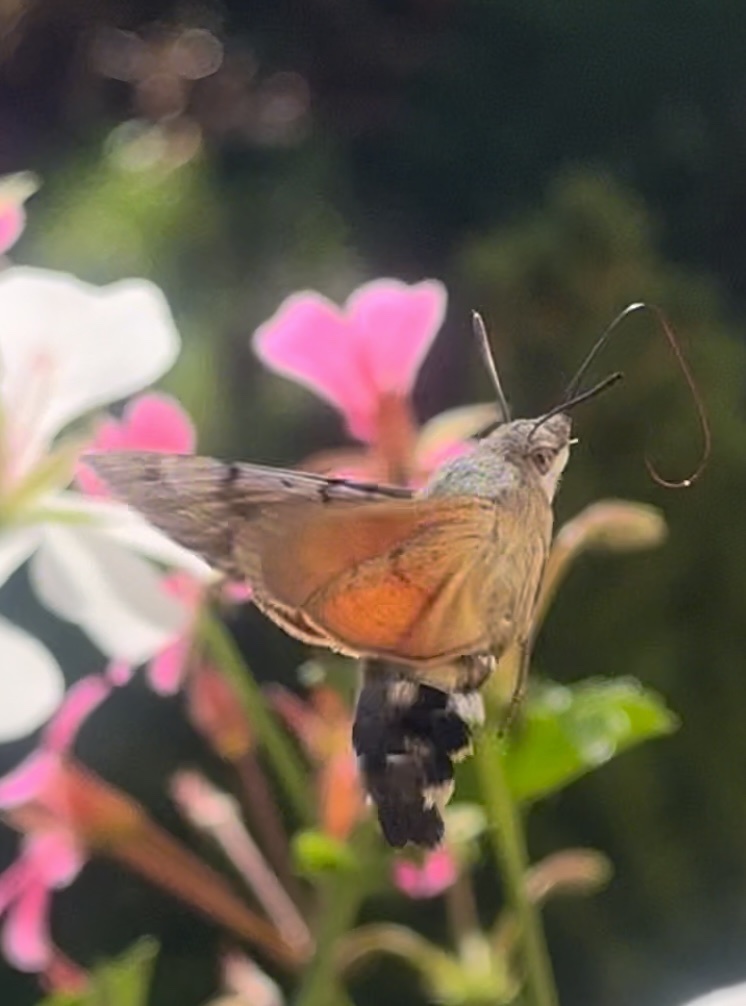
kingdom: Animalia
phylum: Arthropoda
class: Insecta
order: Lepidoptera
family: Sphingidae
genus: Macroglossum
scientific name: Macroglossum stellatarum
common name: Humming-bird hawk-moth
